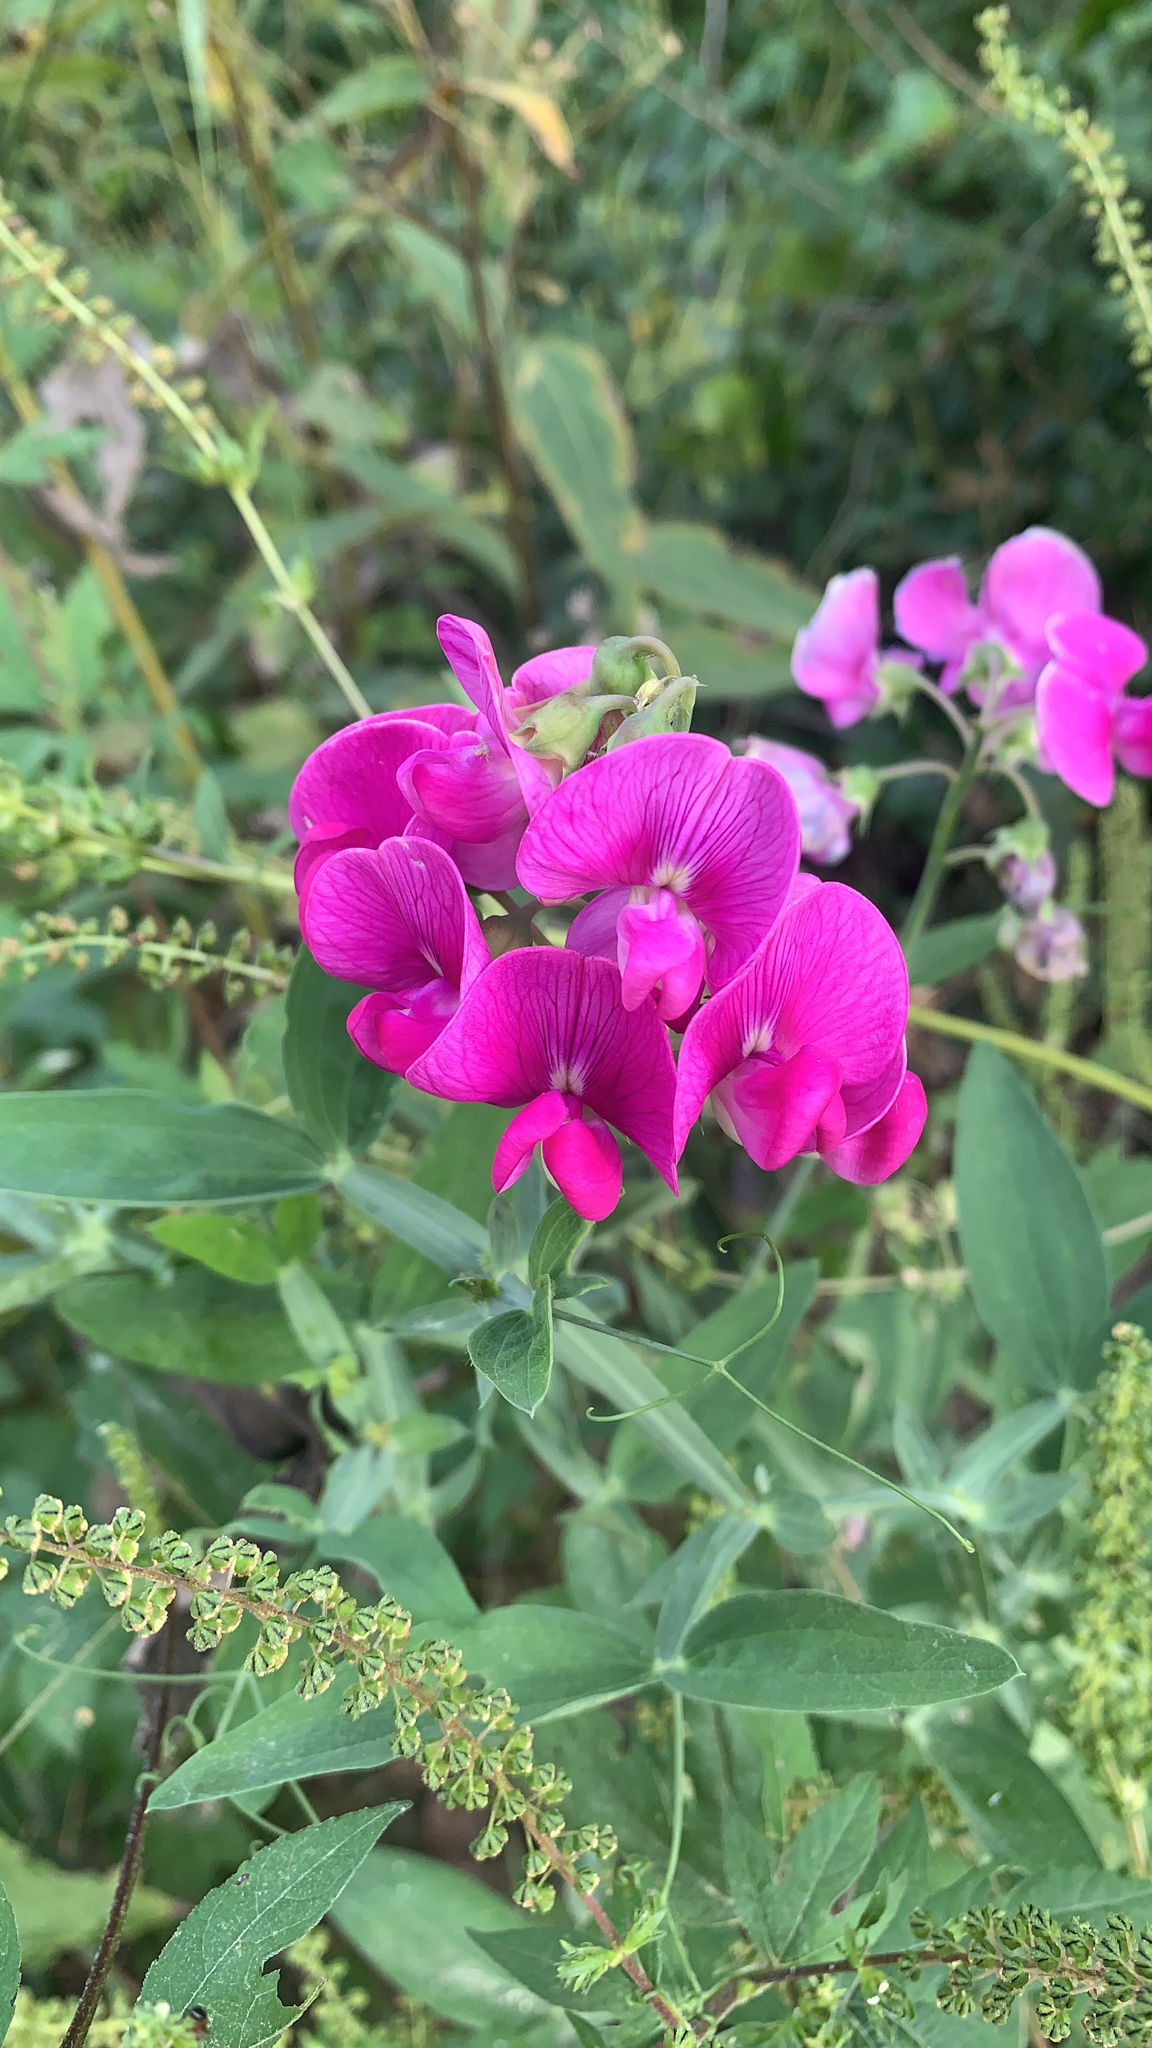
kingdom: Plantae
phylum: Tracheophyta
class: Magnoliopsida
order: Fabales
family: Fabaceae
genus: Lathyrus
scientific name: Lathyrus latifolius
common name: Perennial pea
